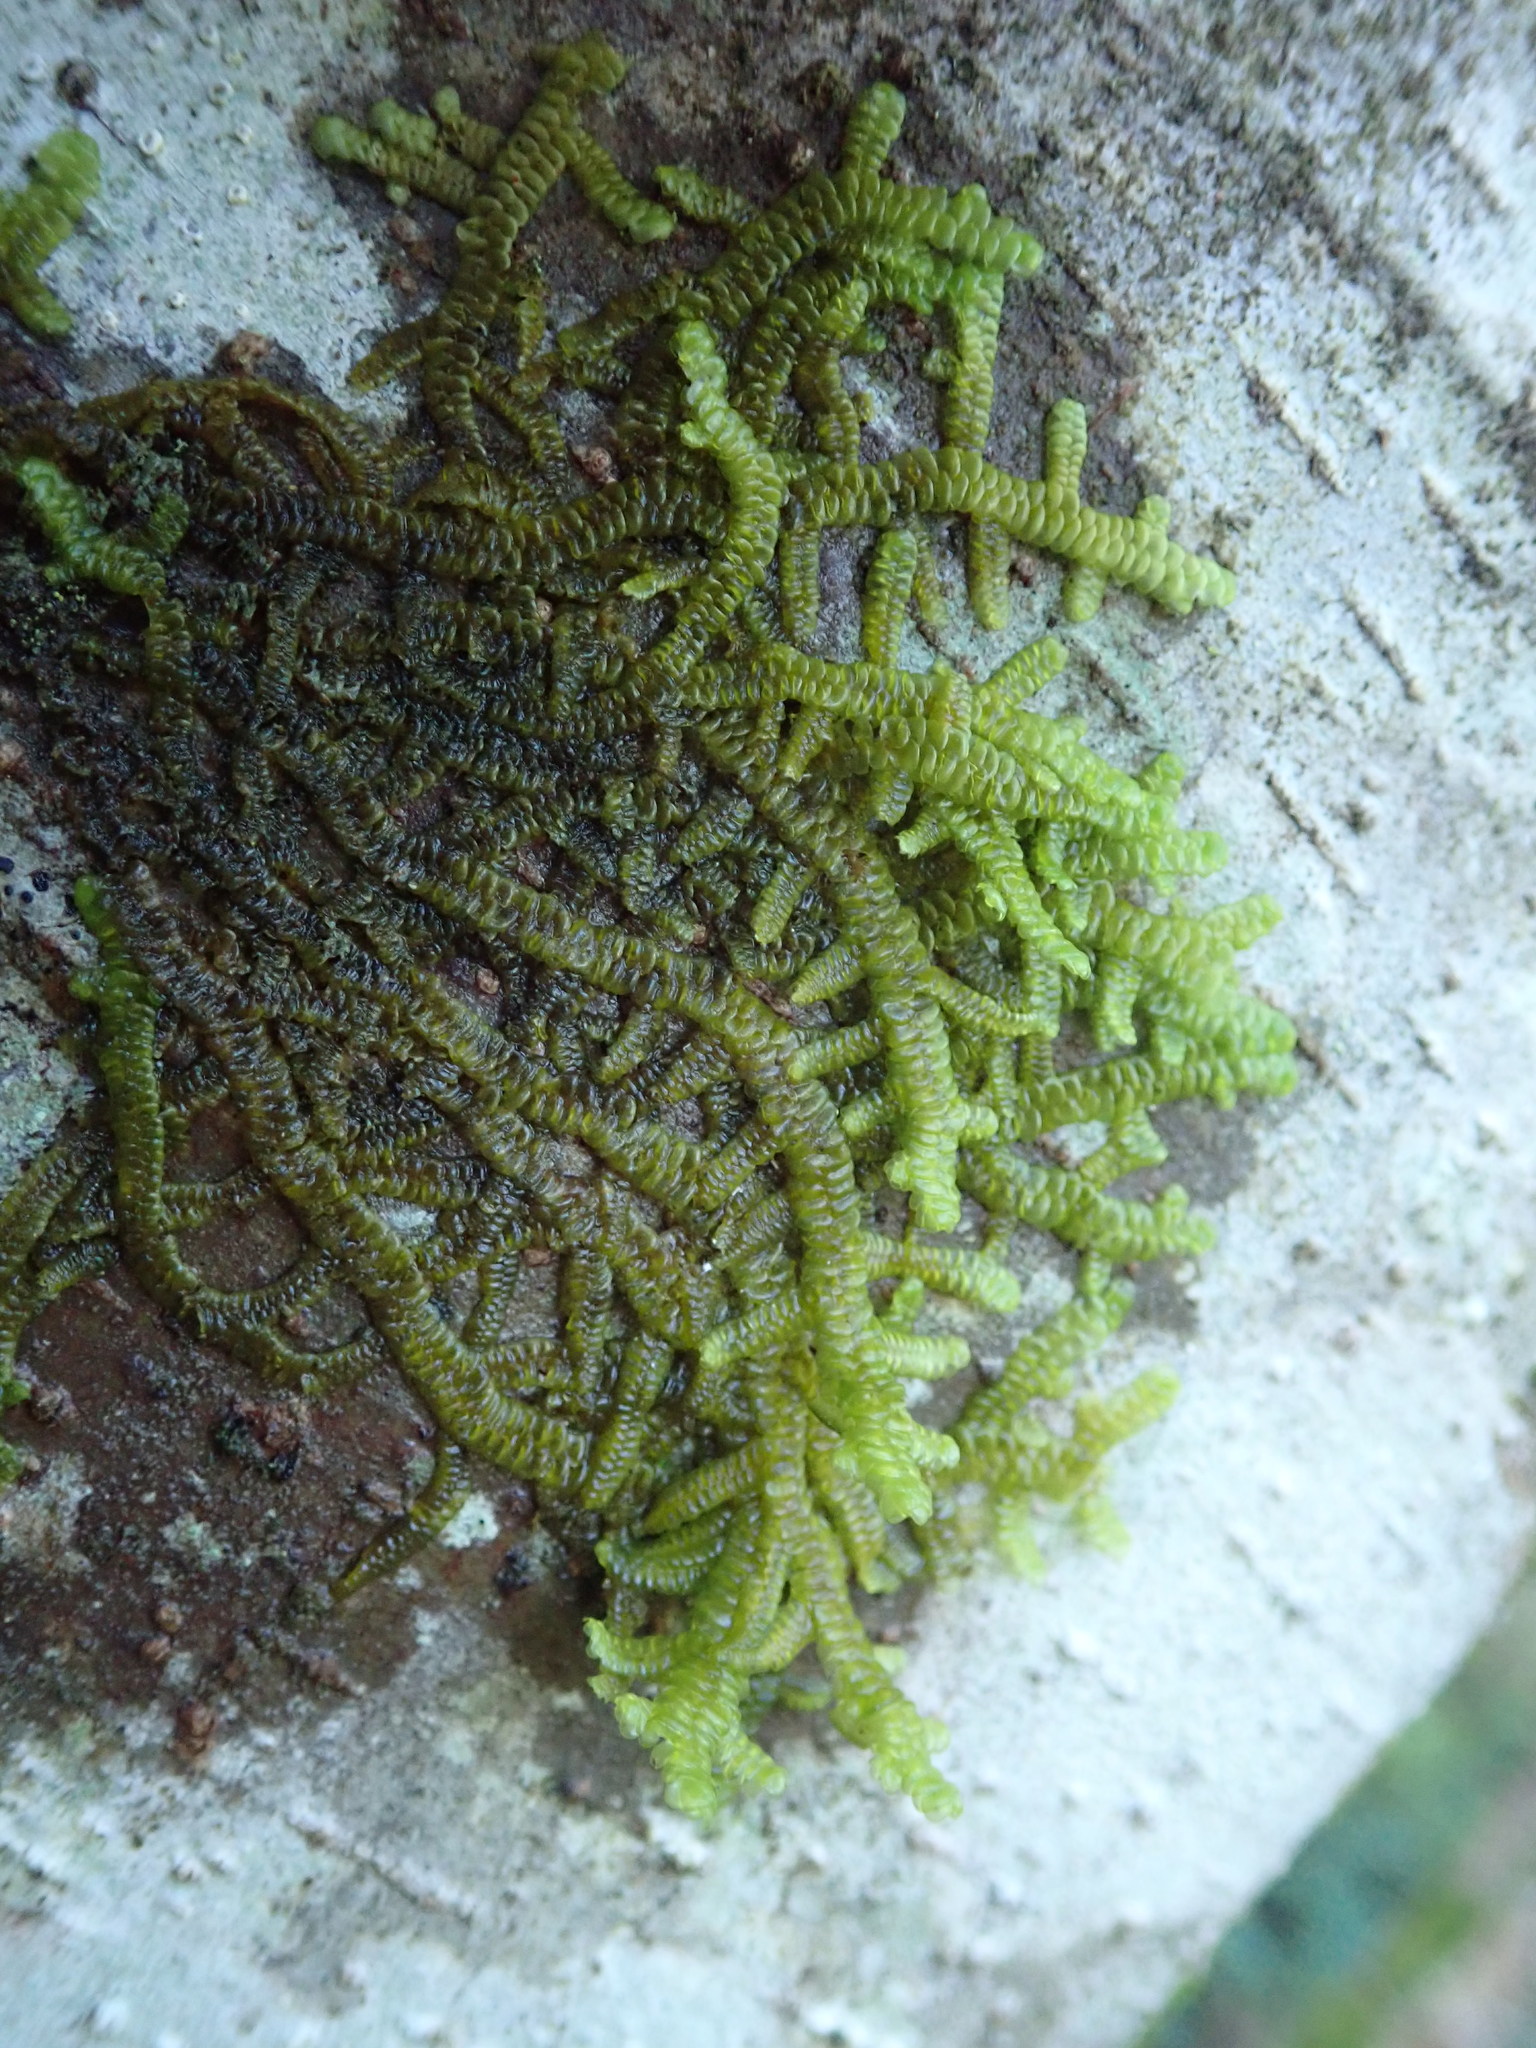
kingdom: Plantae
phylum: Marchantiophyta
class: Jungermanniopsida
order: Porellales
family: Porellaceae
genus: Porella
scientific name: Porella navicularis
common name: Tree ruffle liverwort
